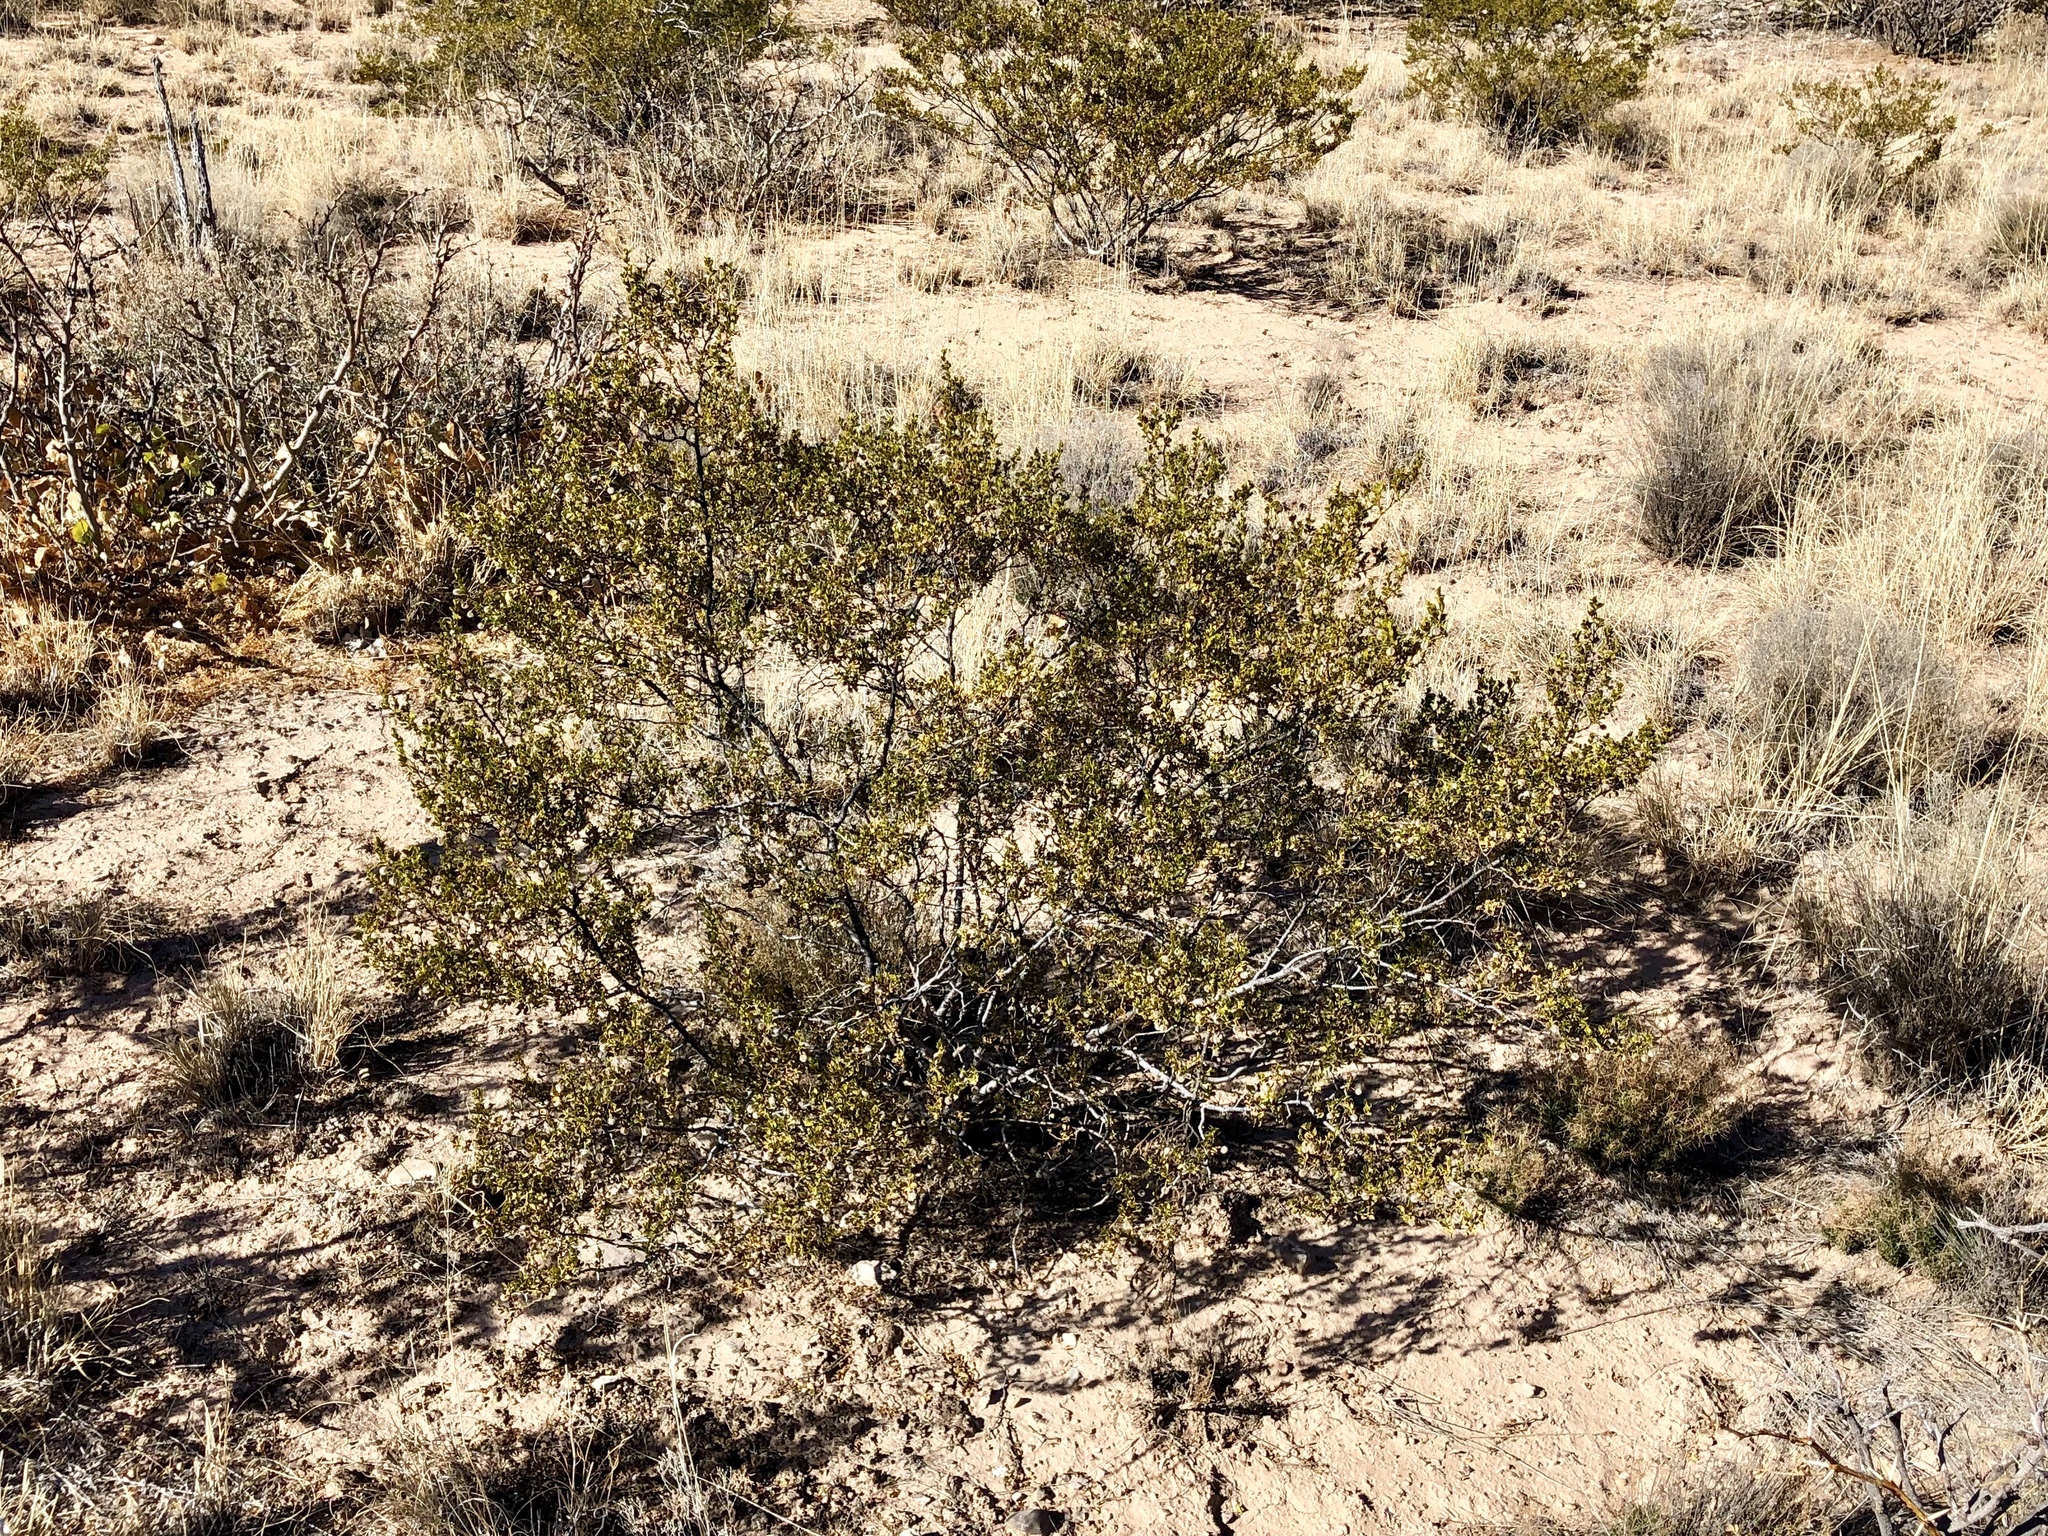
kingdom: Plantae
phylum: Tracheophyta
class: Magnoliopsida
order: Zygophyllales
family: Zygophyllaceae
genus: Larrea
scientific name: Larrea tridentata
